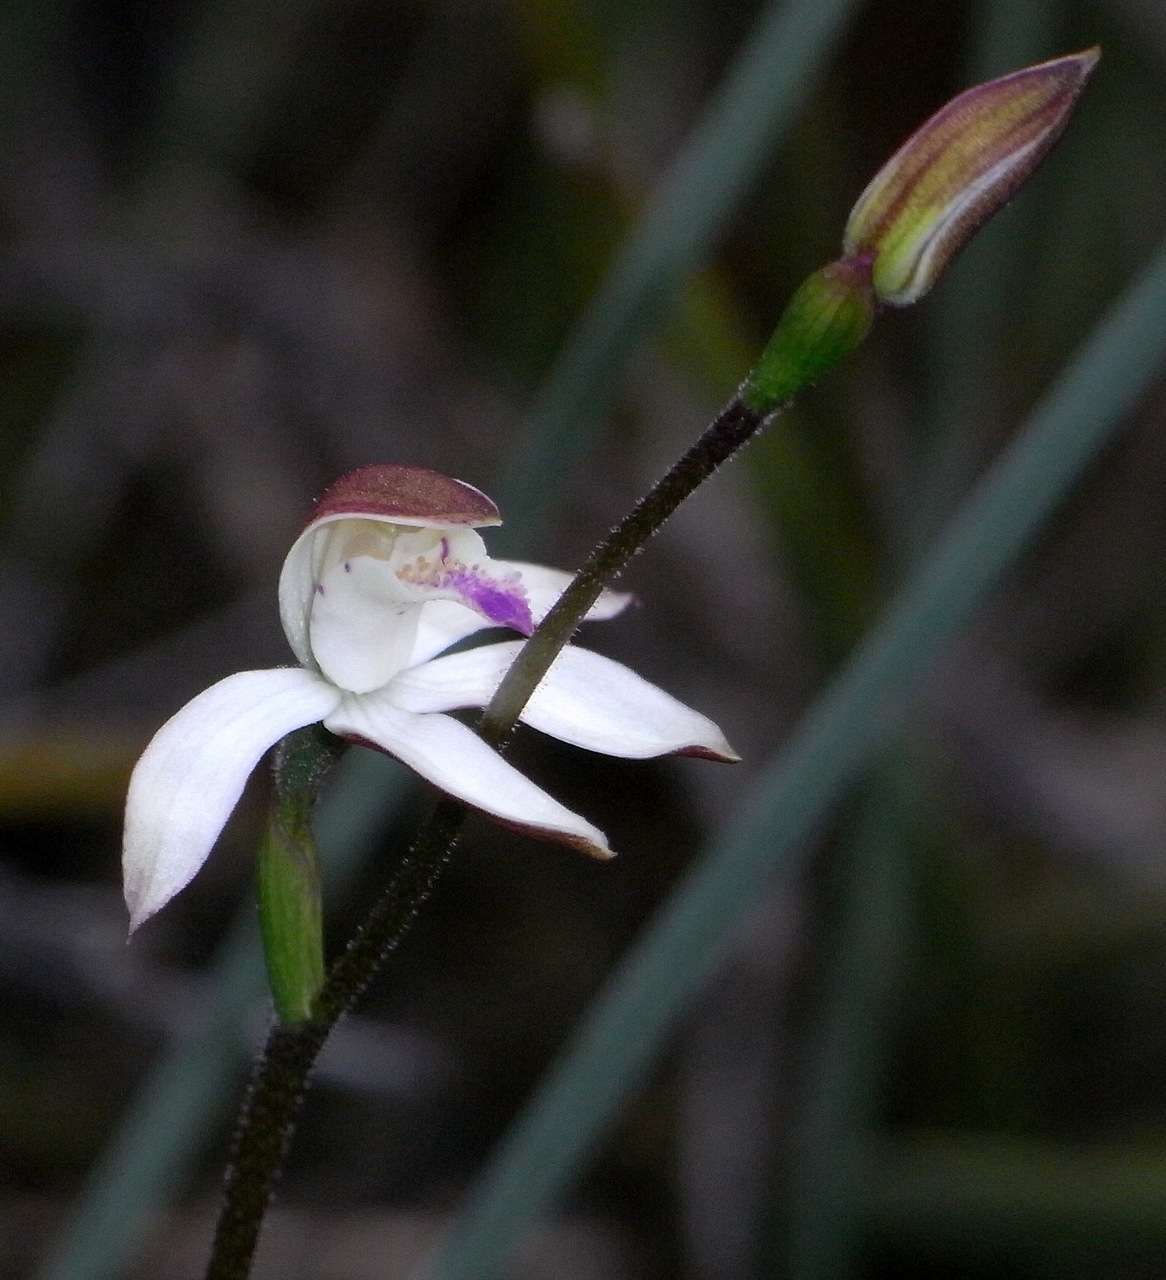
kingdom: Plantae
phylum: Tracheophyta
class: Liliopsida
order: Asparagales
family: Orchidaceae
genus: Caladenia
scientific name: Caladenia moschata
